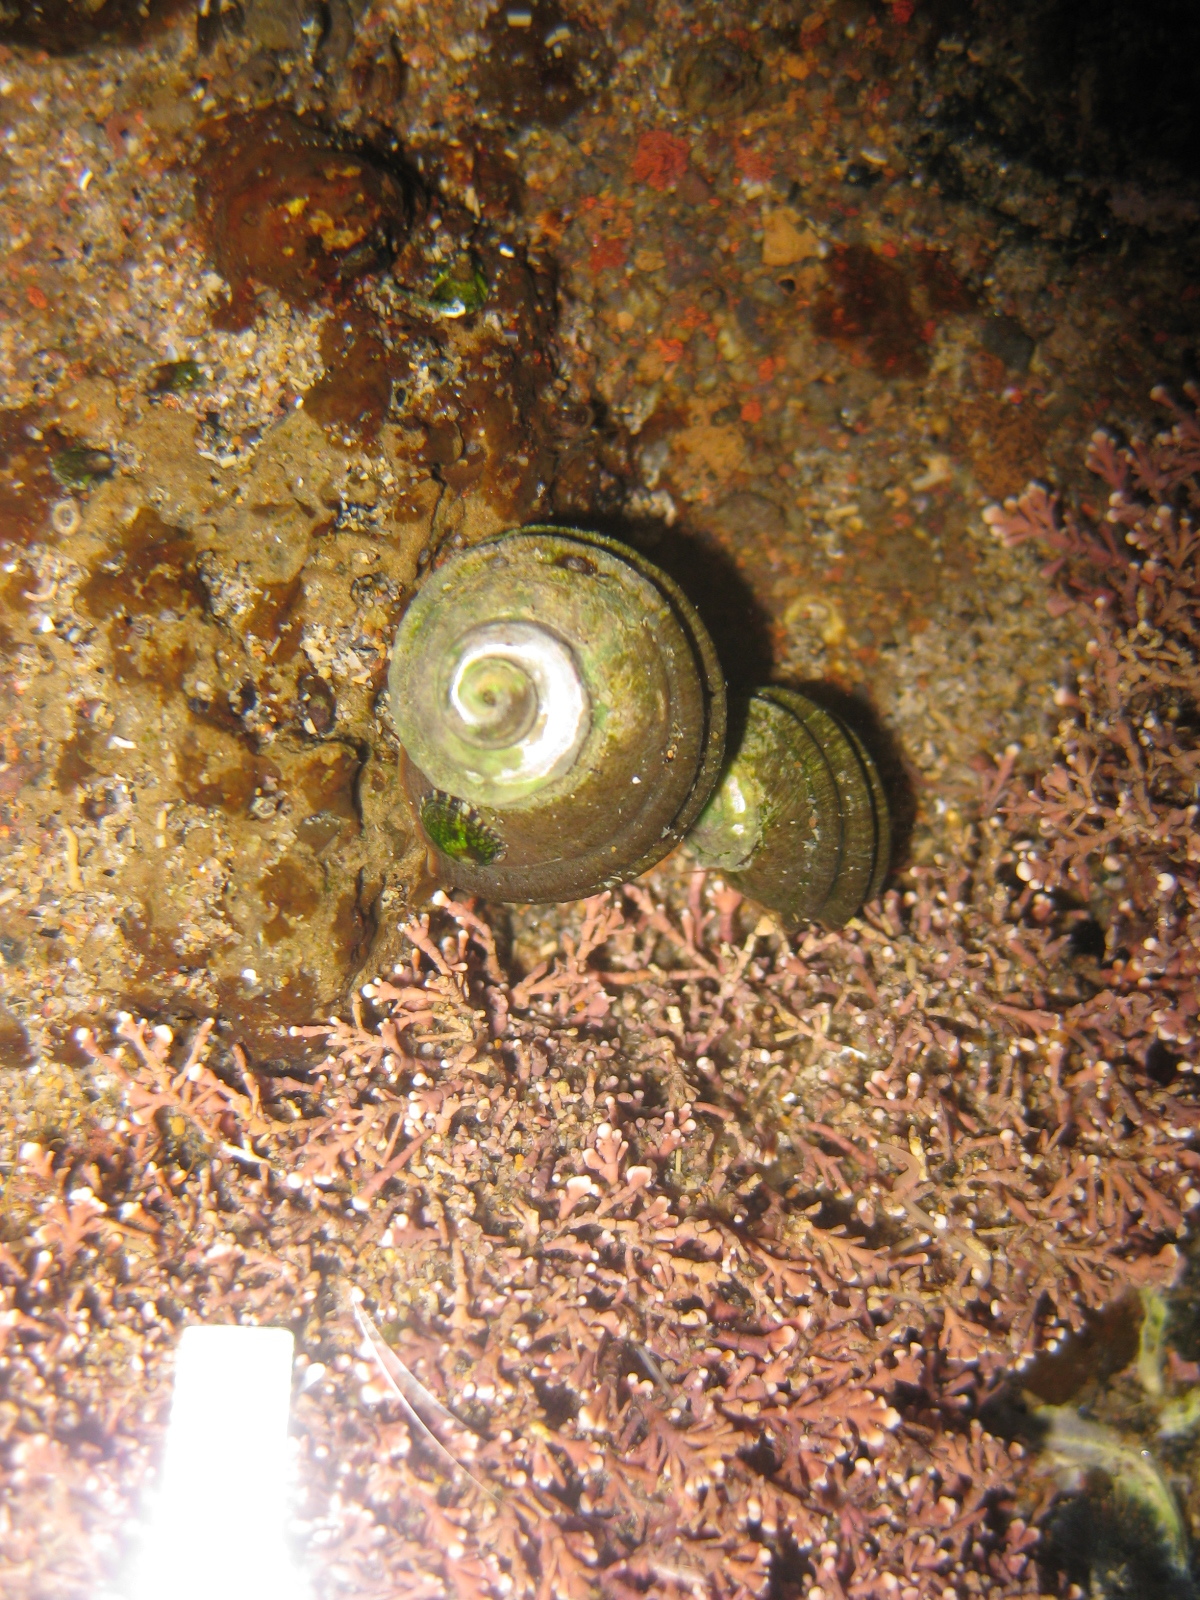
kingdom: Animalia
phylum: Mollusca
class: Gastropoda
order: Trochida
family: Turbinidae
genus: Lunella
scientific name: Lunella smaragda
